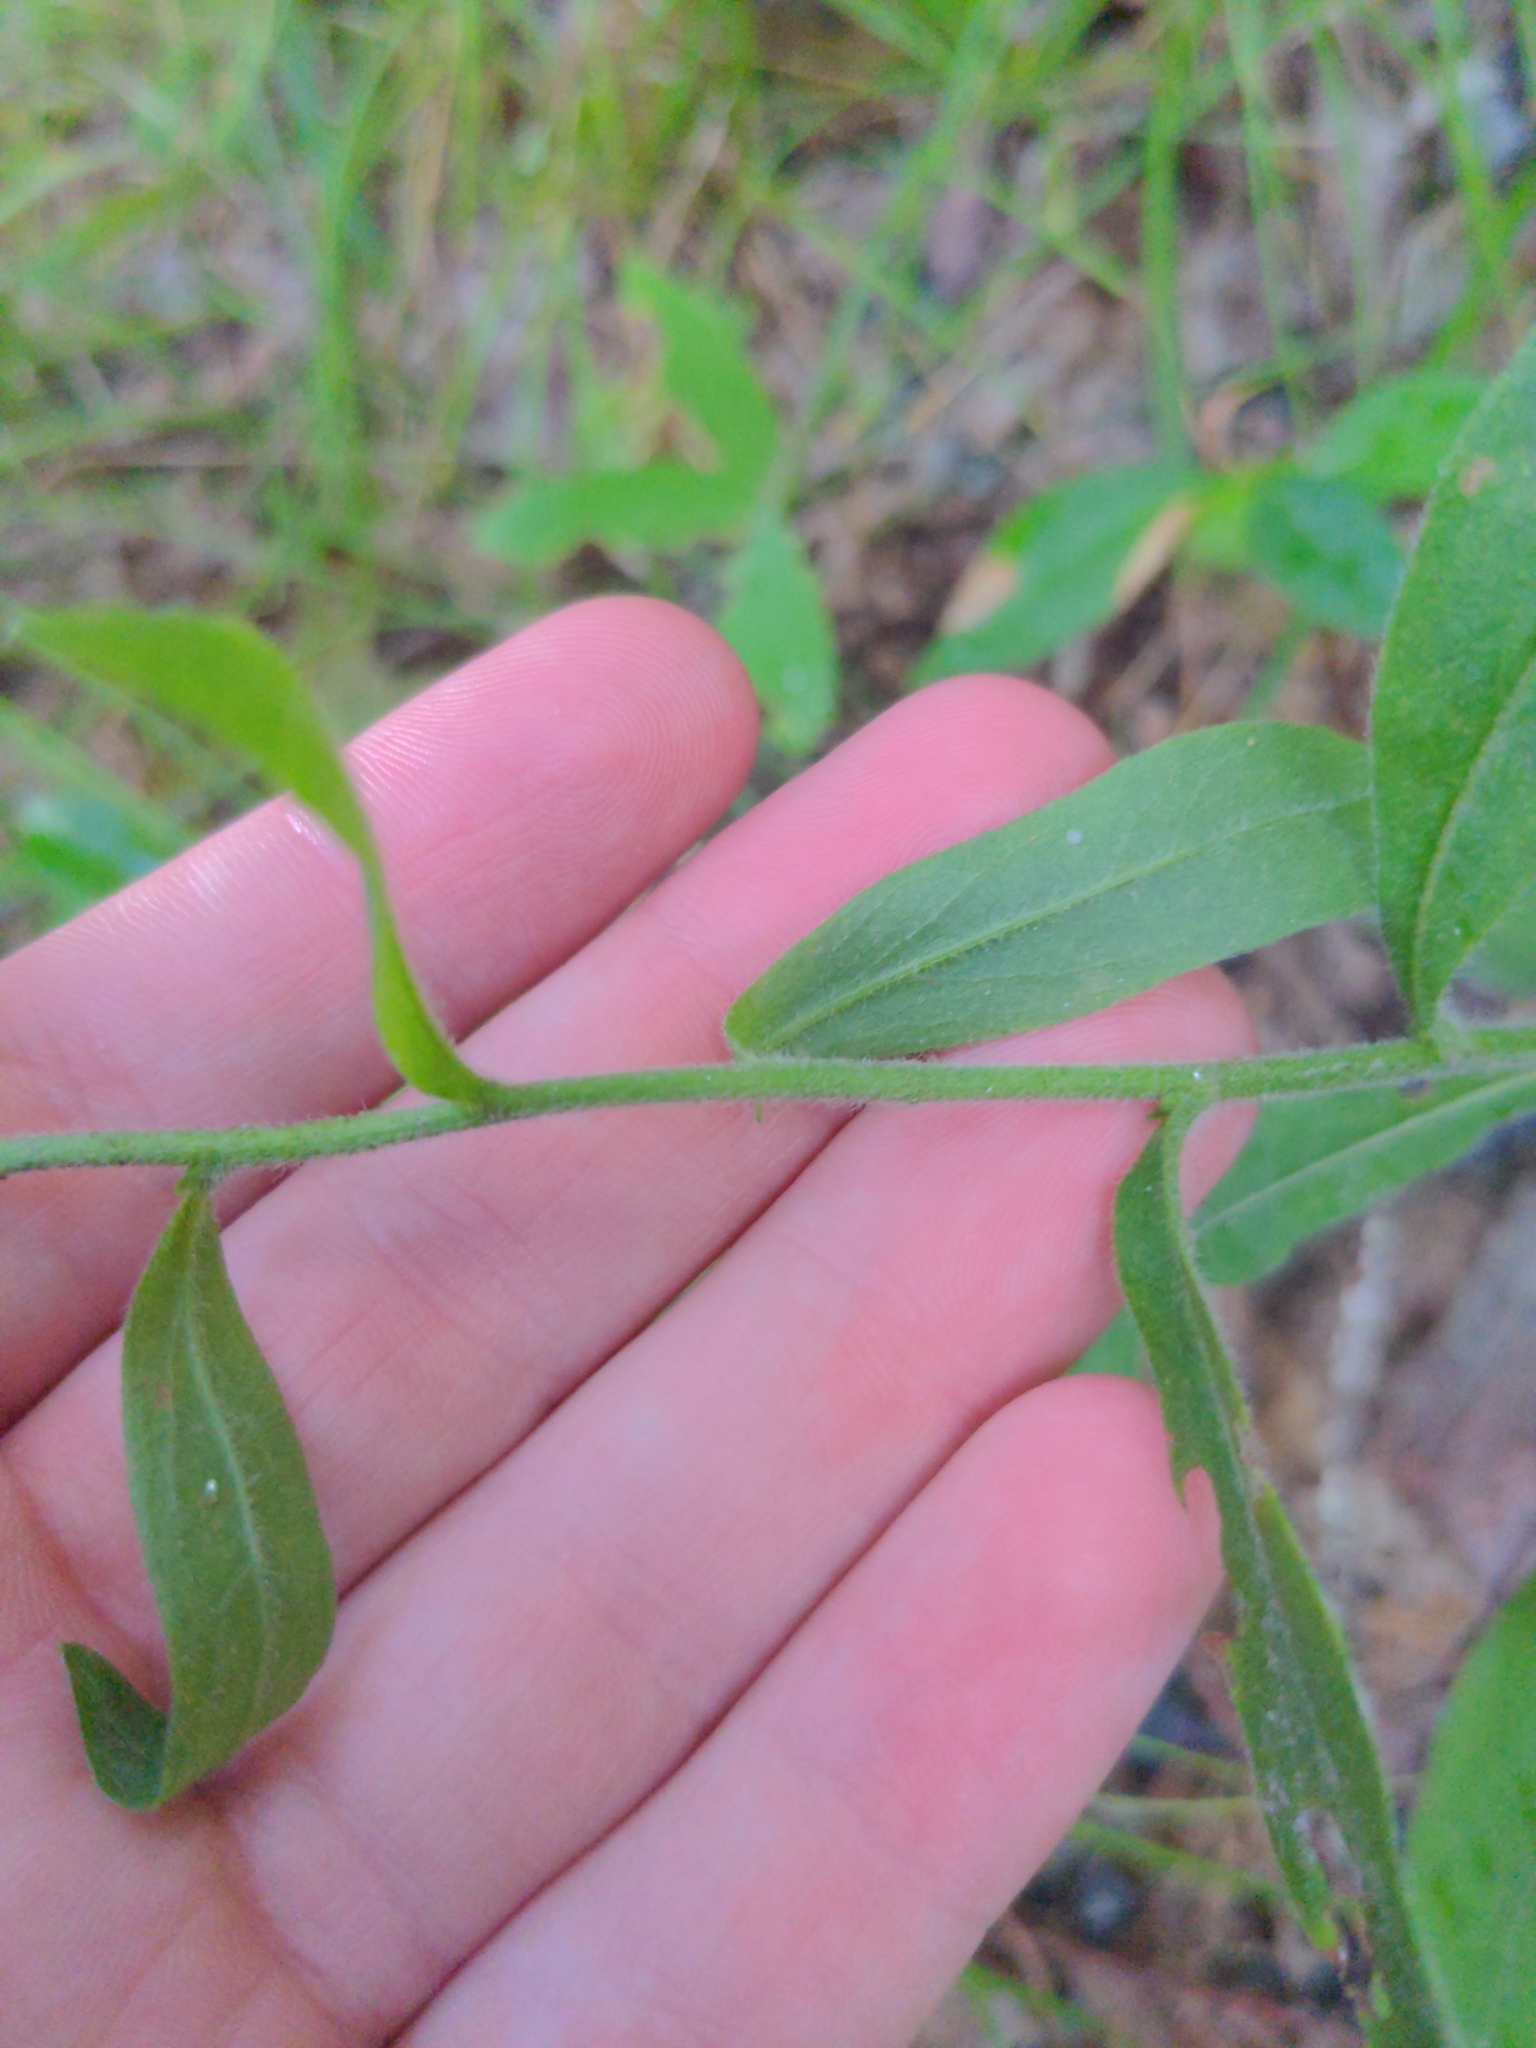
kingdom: Plantae
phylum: Tracheophyta
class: Magnoliopsida
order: Asterales
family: Asteraceae
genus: Solidago
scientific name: Solidago bicolor
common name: Silverrod
